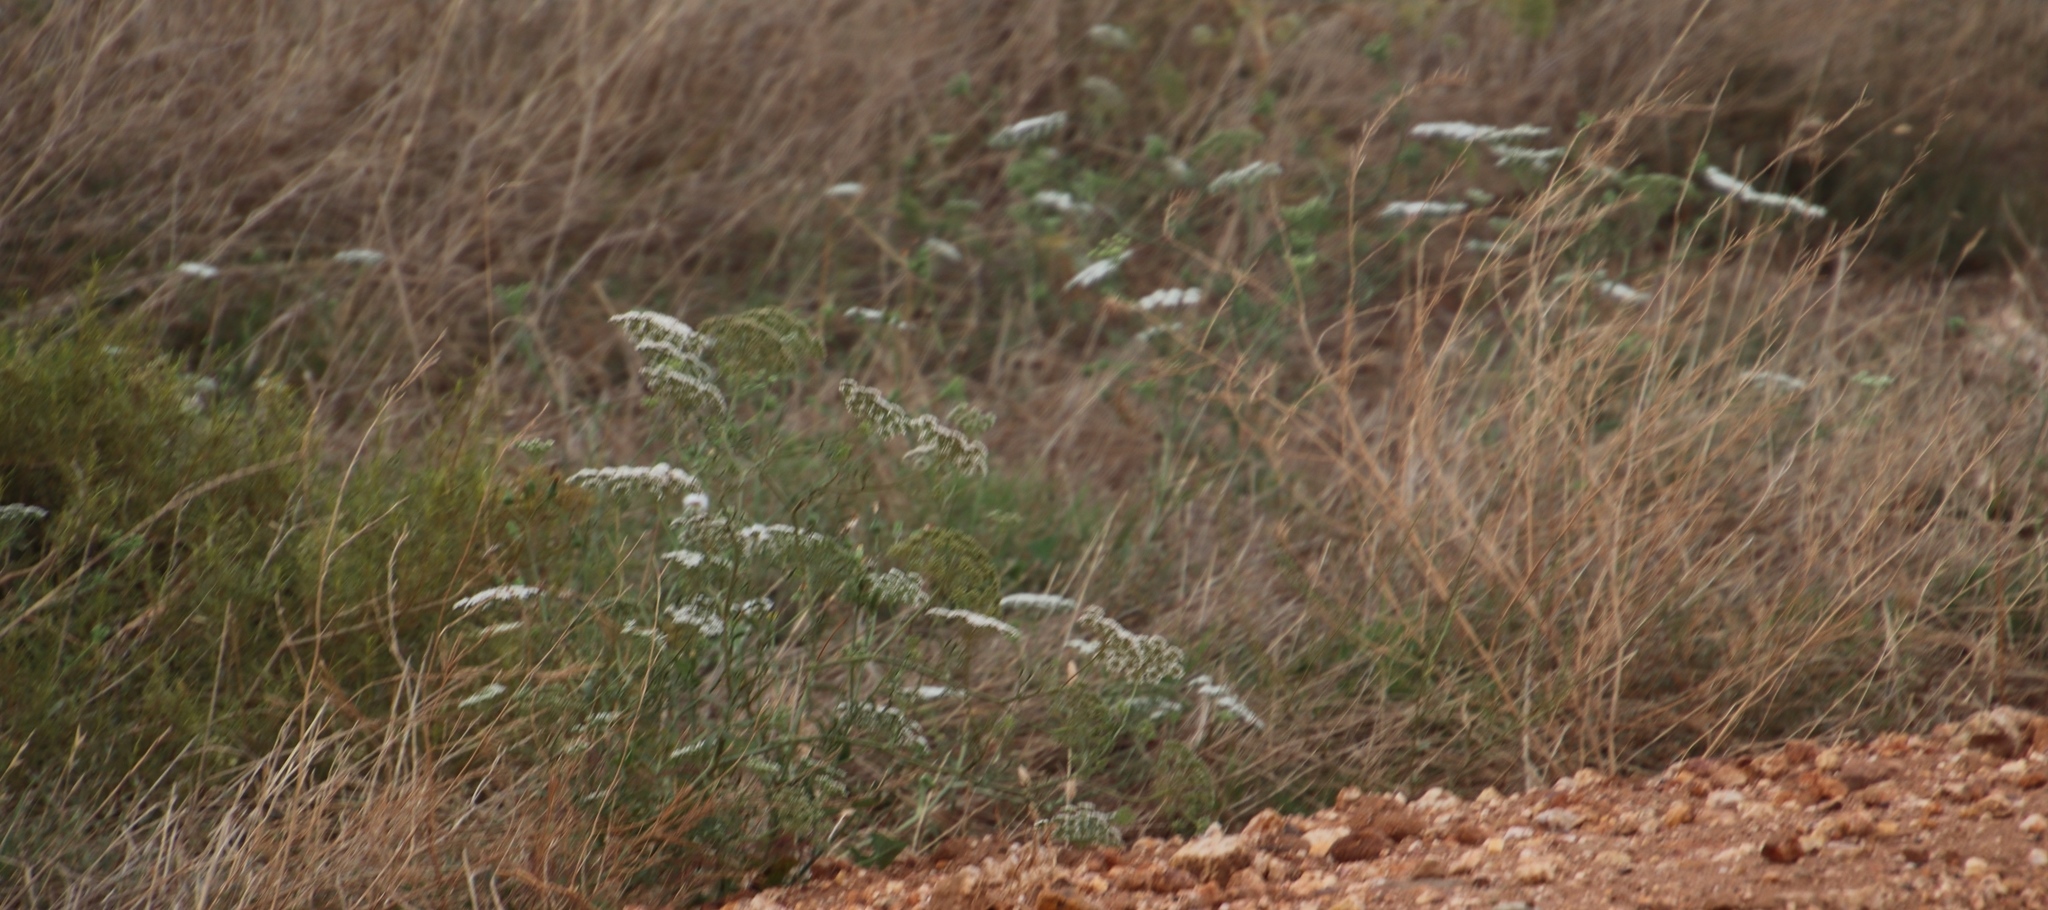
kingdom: Plantae
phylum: Tracheophyta
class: Magnoliopsida
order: Apiales
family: Apiaceae
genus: Ammi
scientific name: Ammi majus
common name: Bullwort
